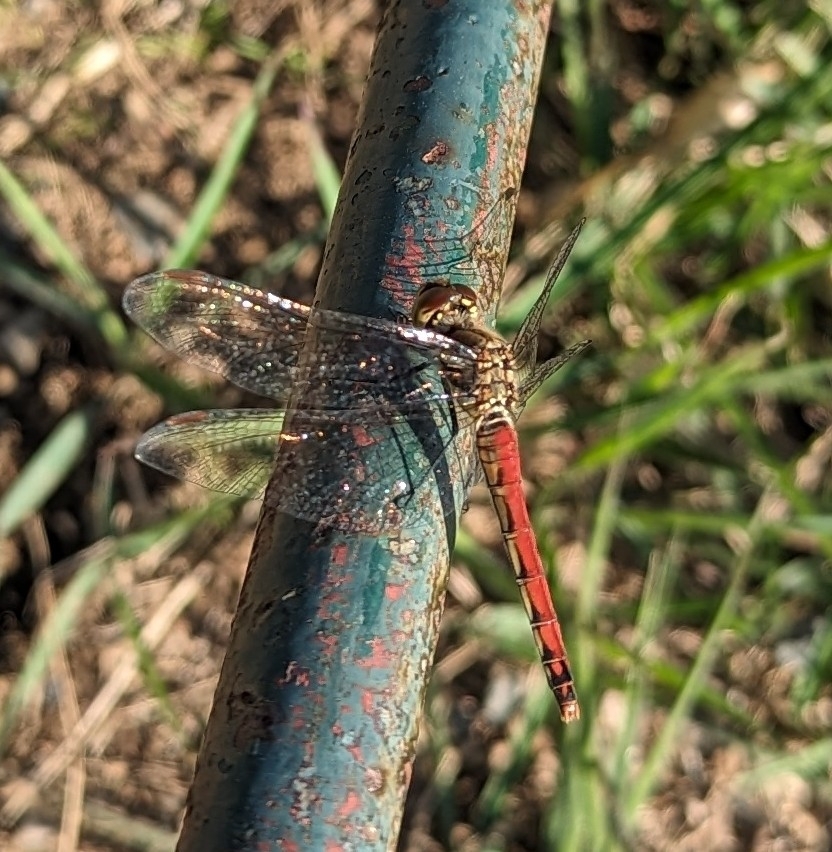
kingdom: Animalia
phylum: Arthropoda
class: Insecta
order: Odonata
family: Libellulidae
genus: Sympetrum
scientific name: Sympetrum frequens
